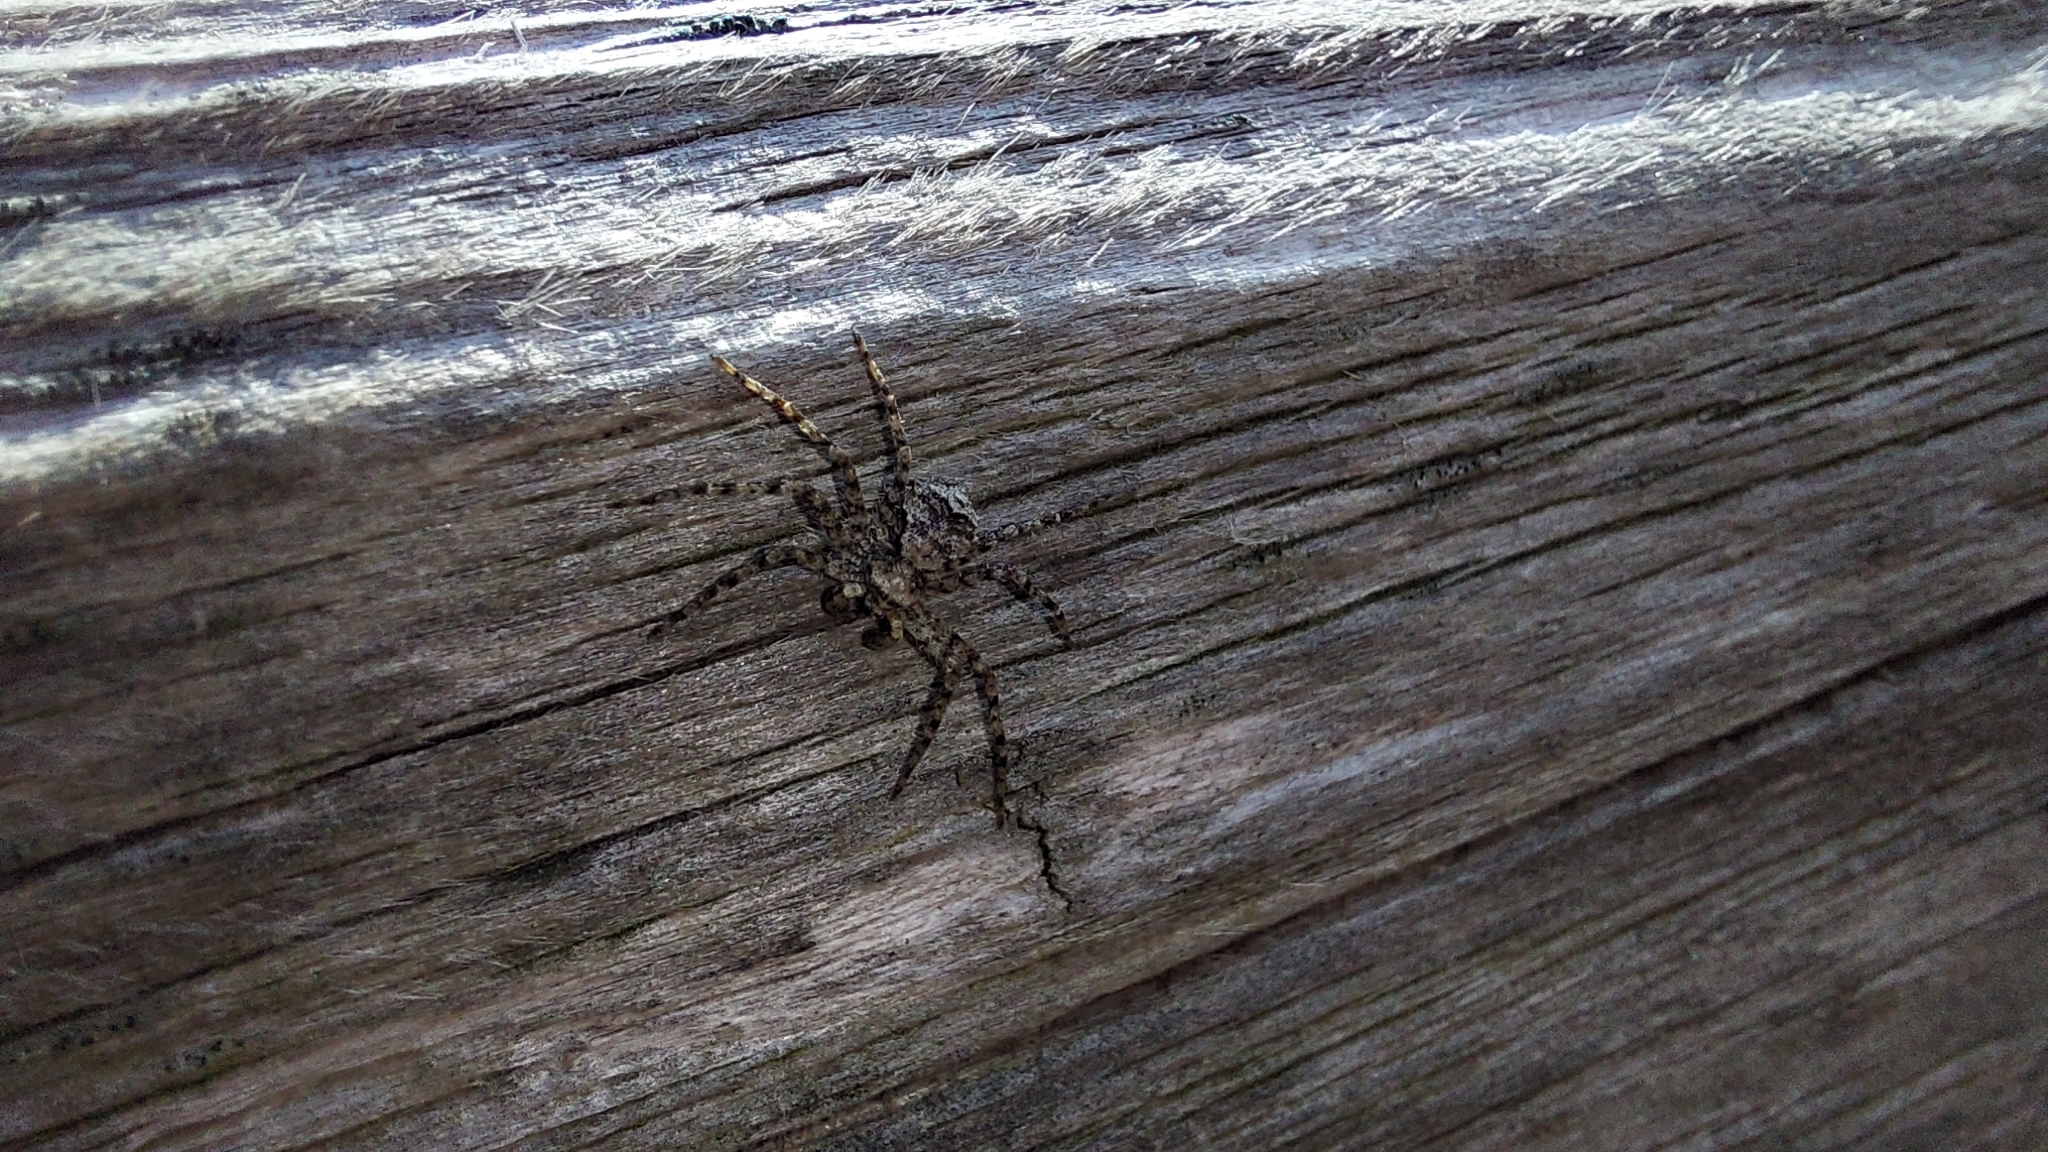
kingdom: Animalia
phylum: Arthropoda
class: Arachnida
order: Araneae
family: Philodromidae
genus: Philodromus
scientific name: Philodromus poecilus
